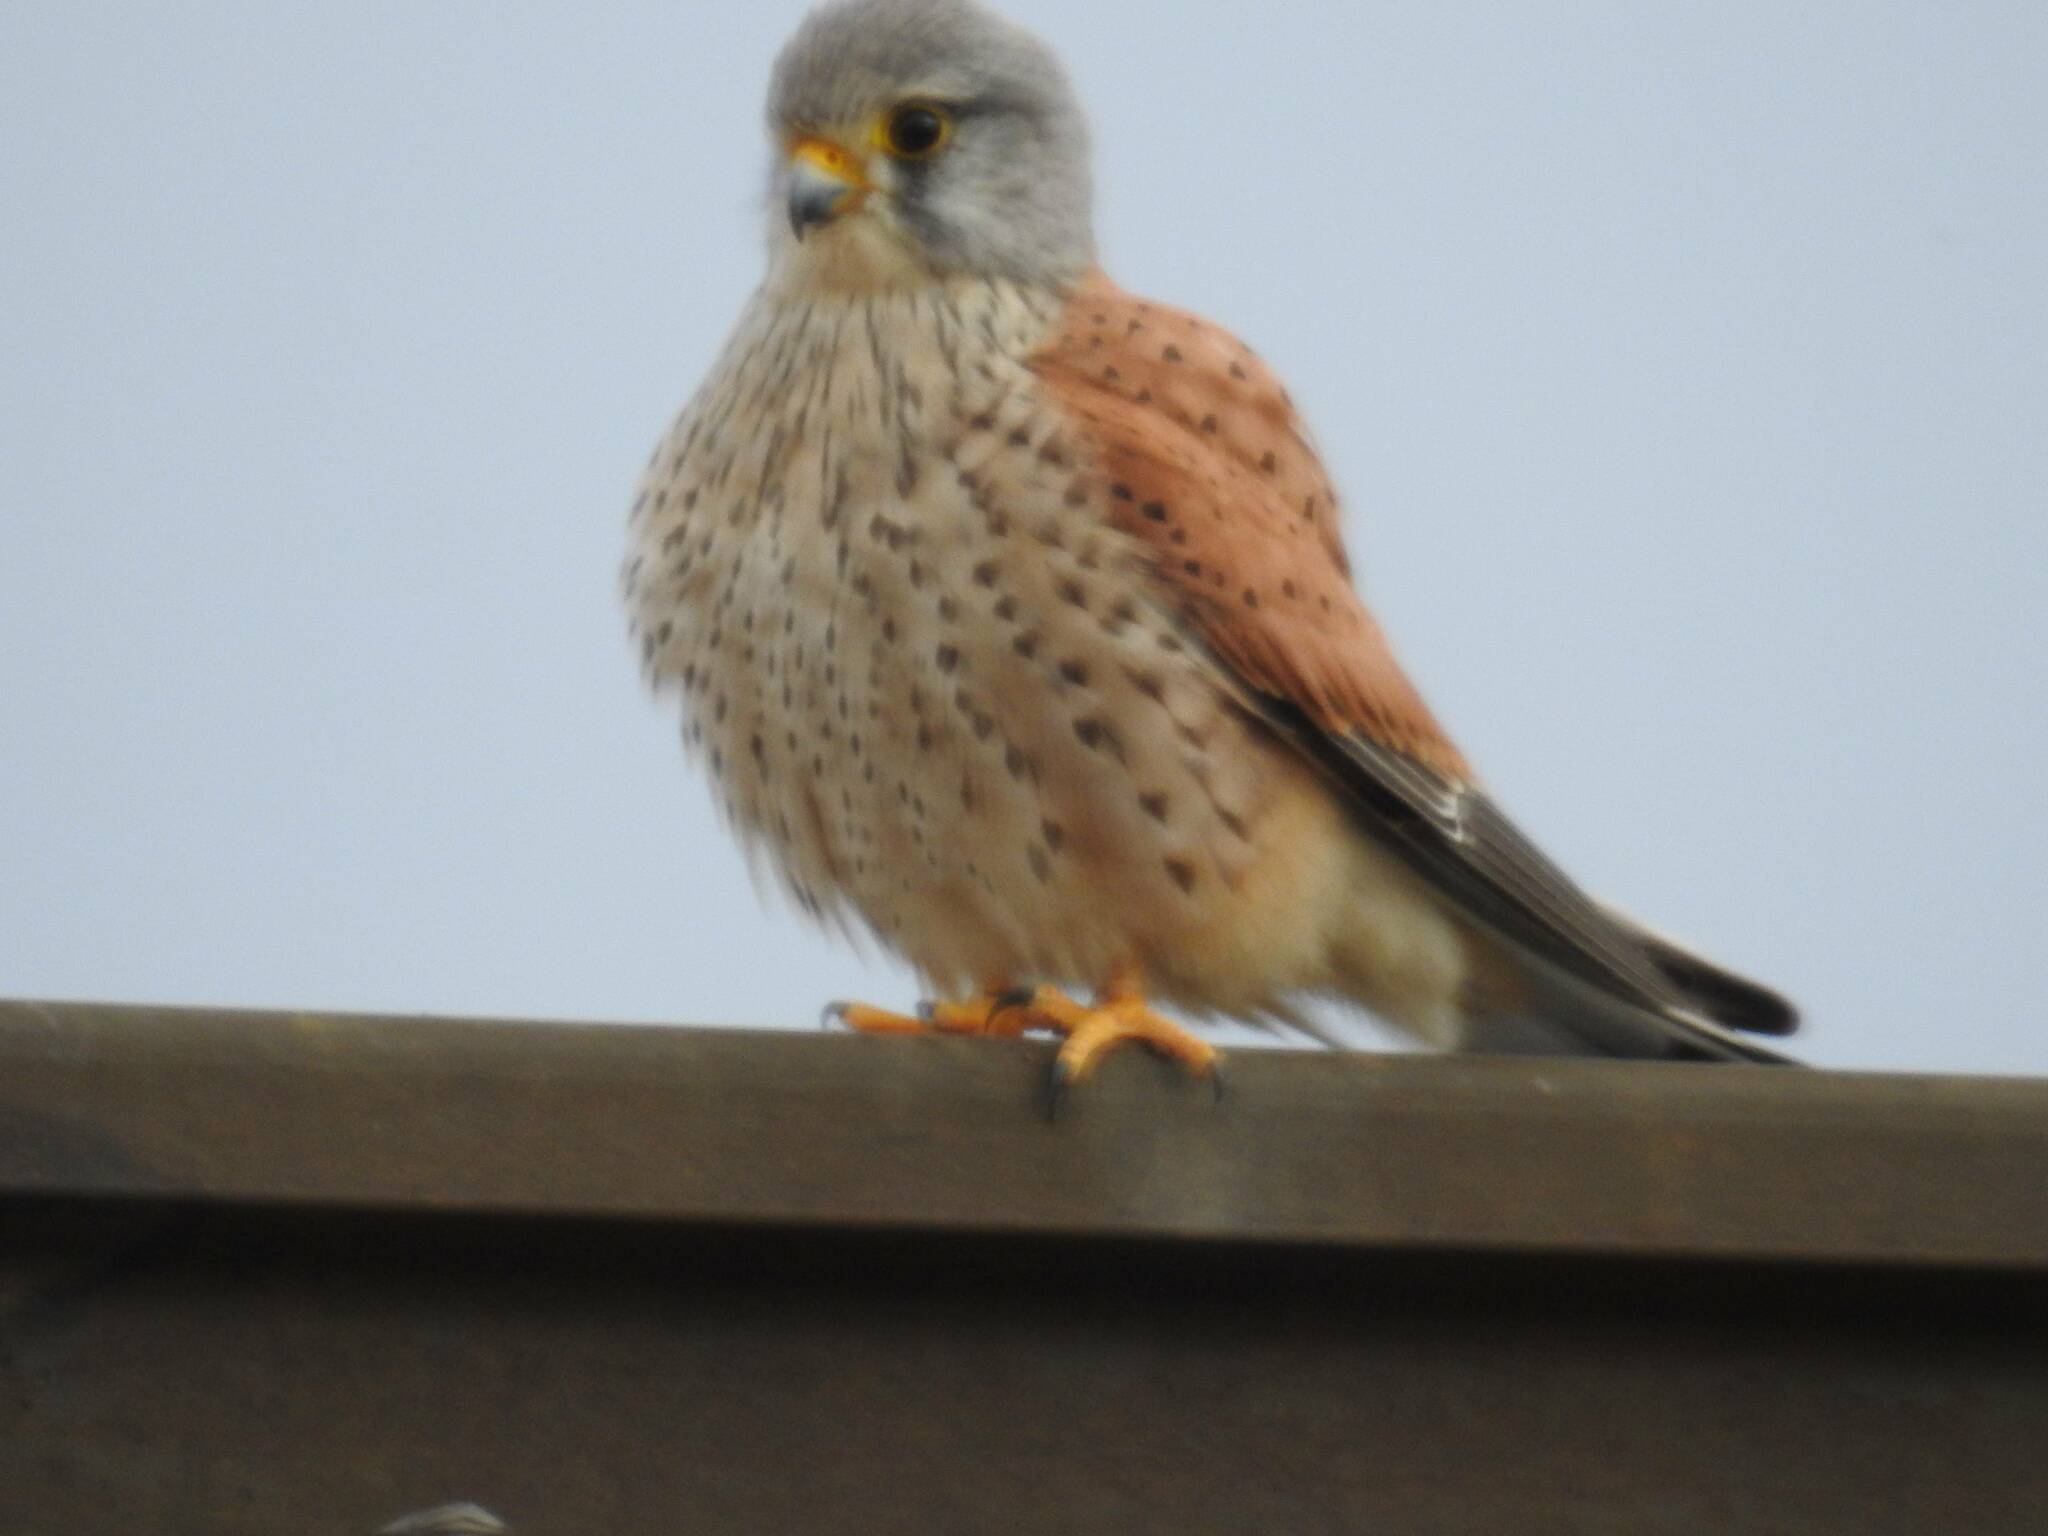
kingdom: Animalia
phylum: Chordata
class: Aves
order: Falconiformes
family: Falconidae
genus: Falco
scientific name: Falco tinnunculus
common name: Common kestrel
